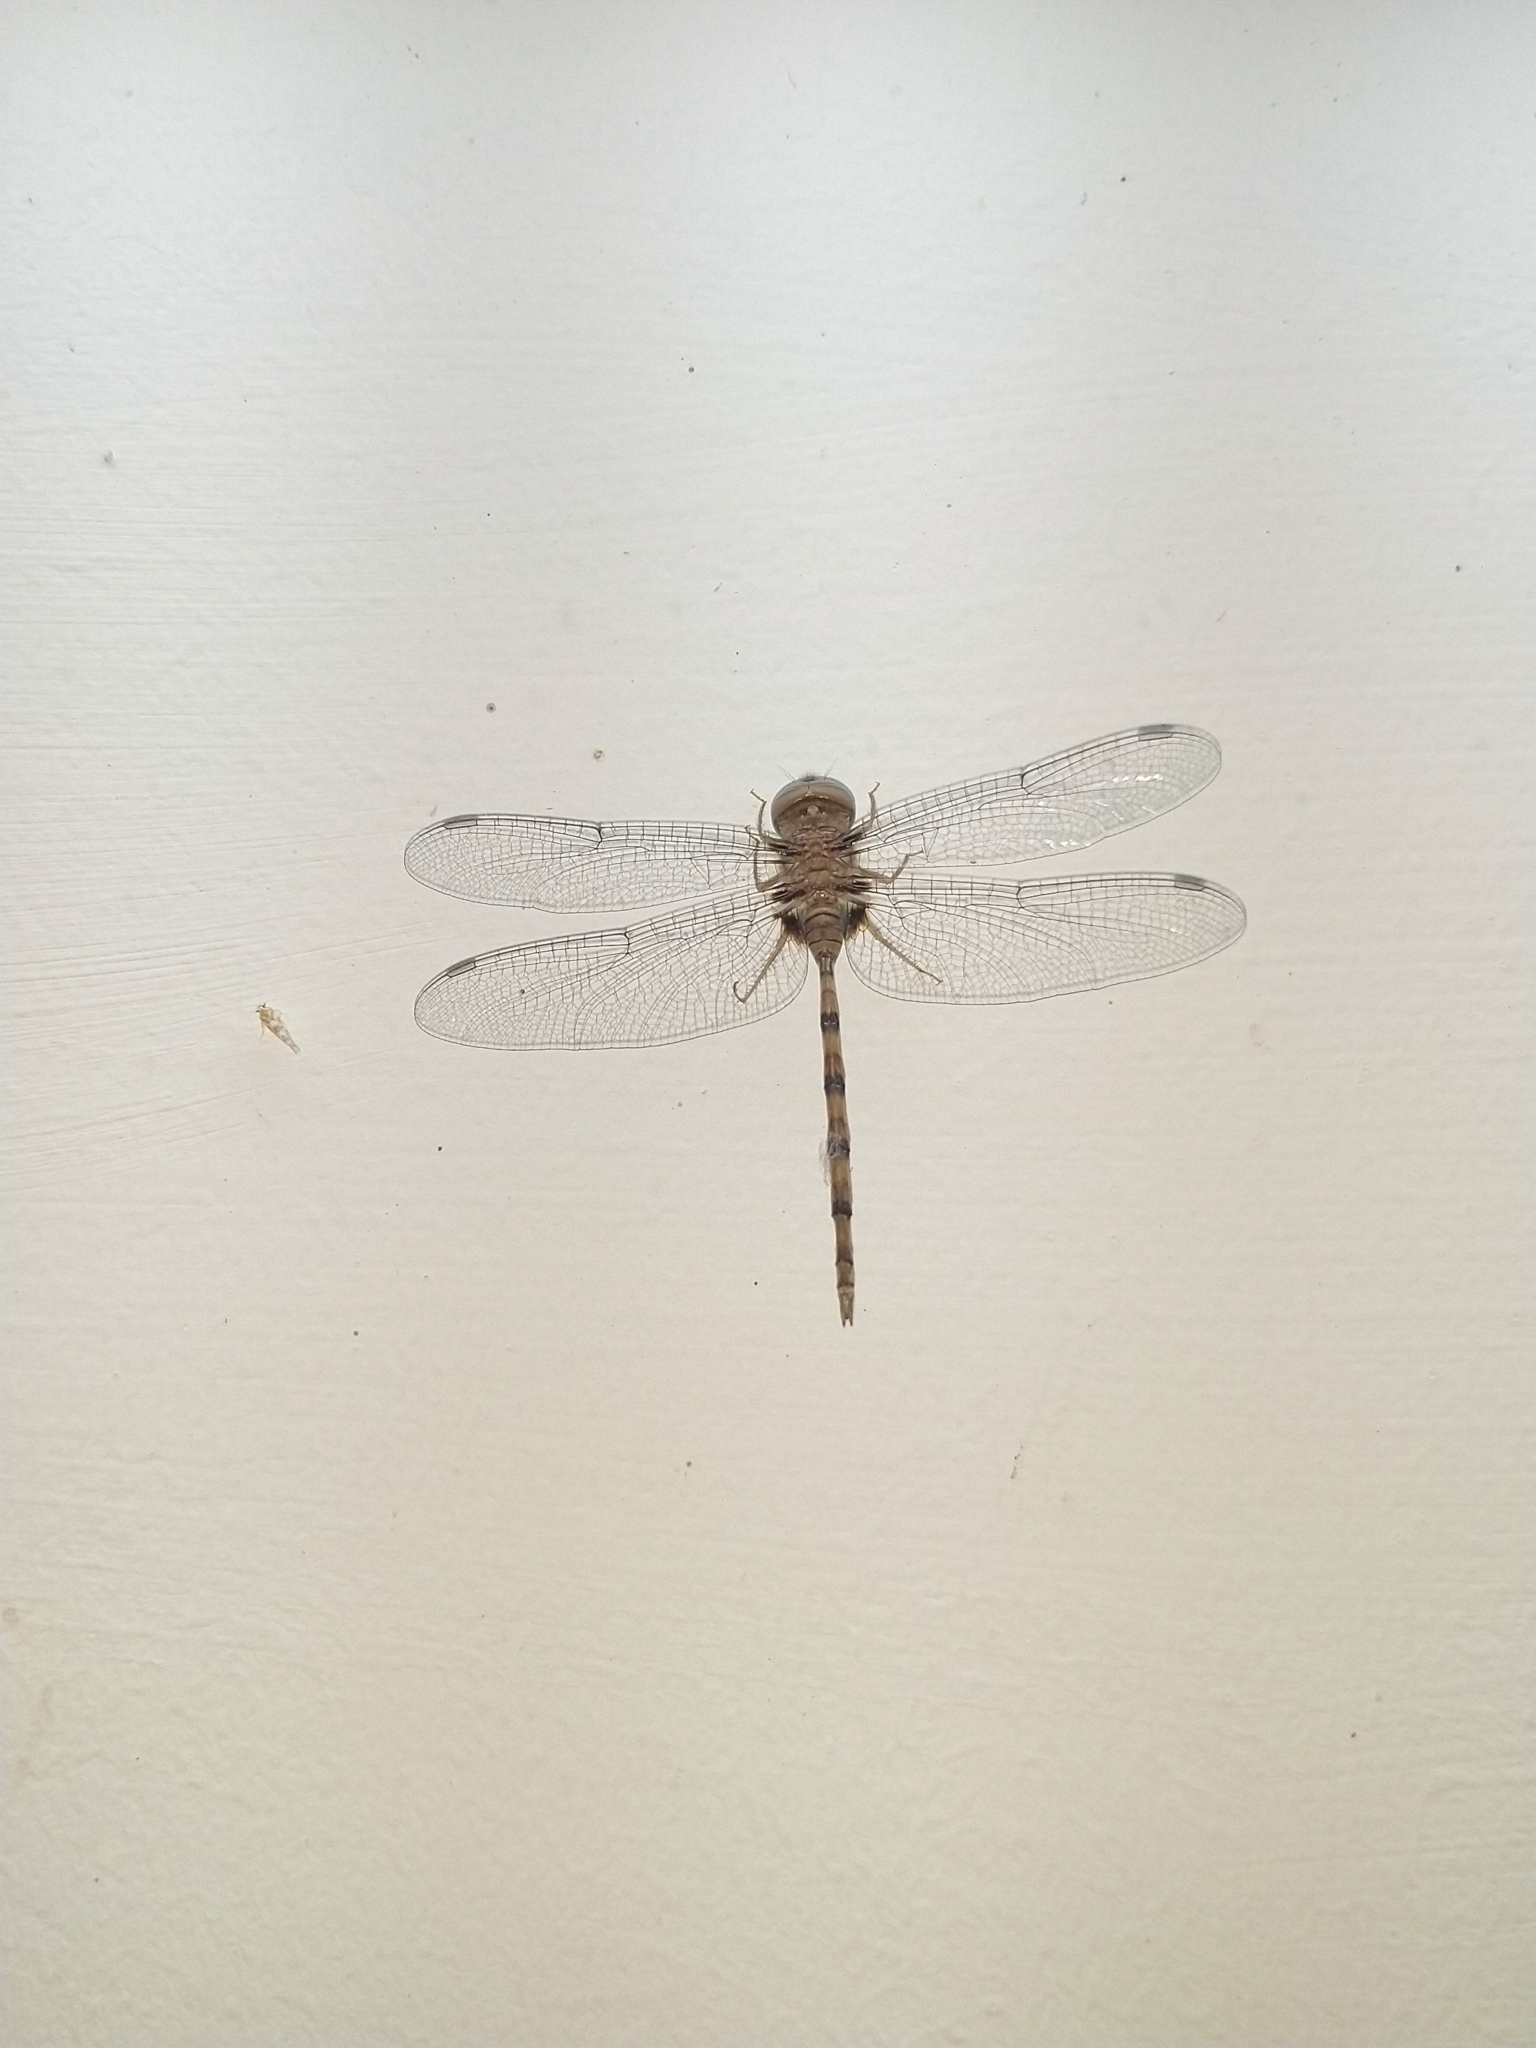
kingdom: Animalia
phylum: Arthropoda
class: Insecta
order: Odonata
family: Libellulidae
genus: Zyxomma
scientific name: Zyxomma petiolatum
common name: Dingy dusk-darter
